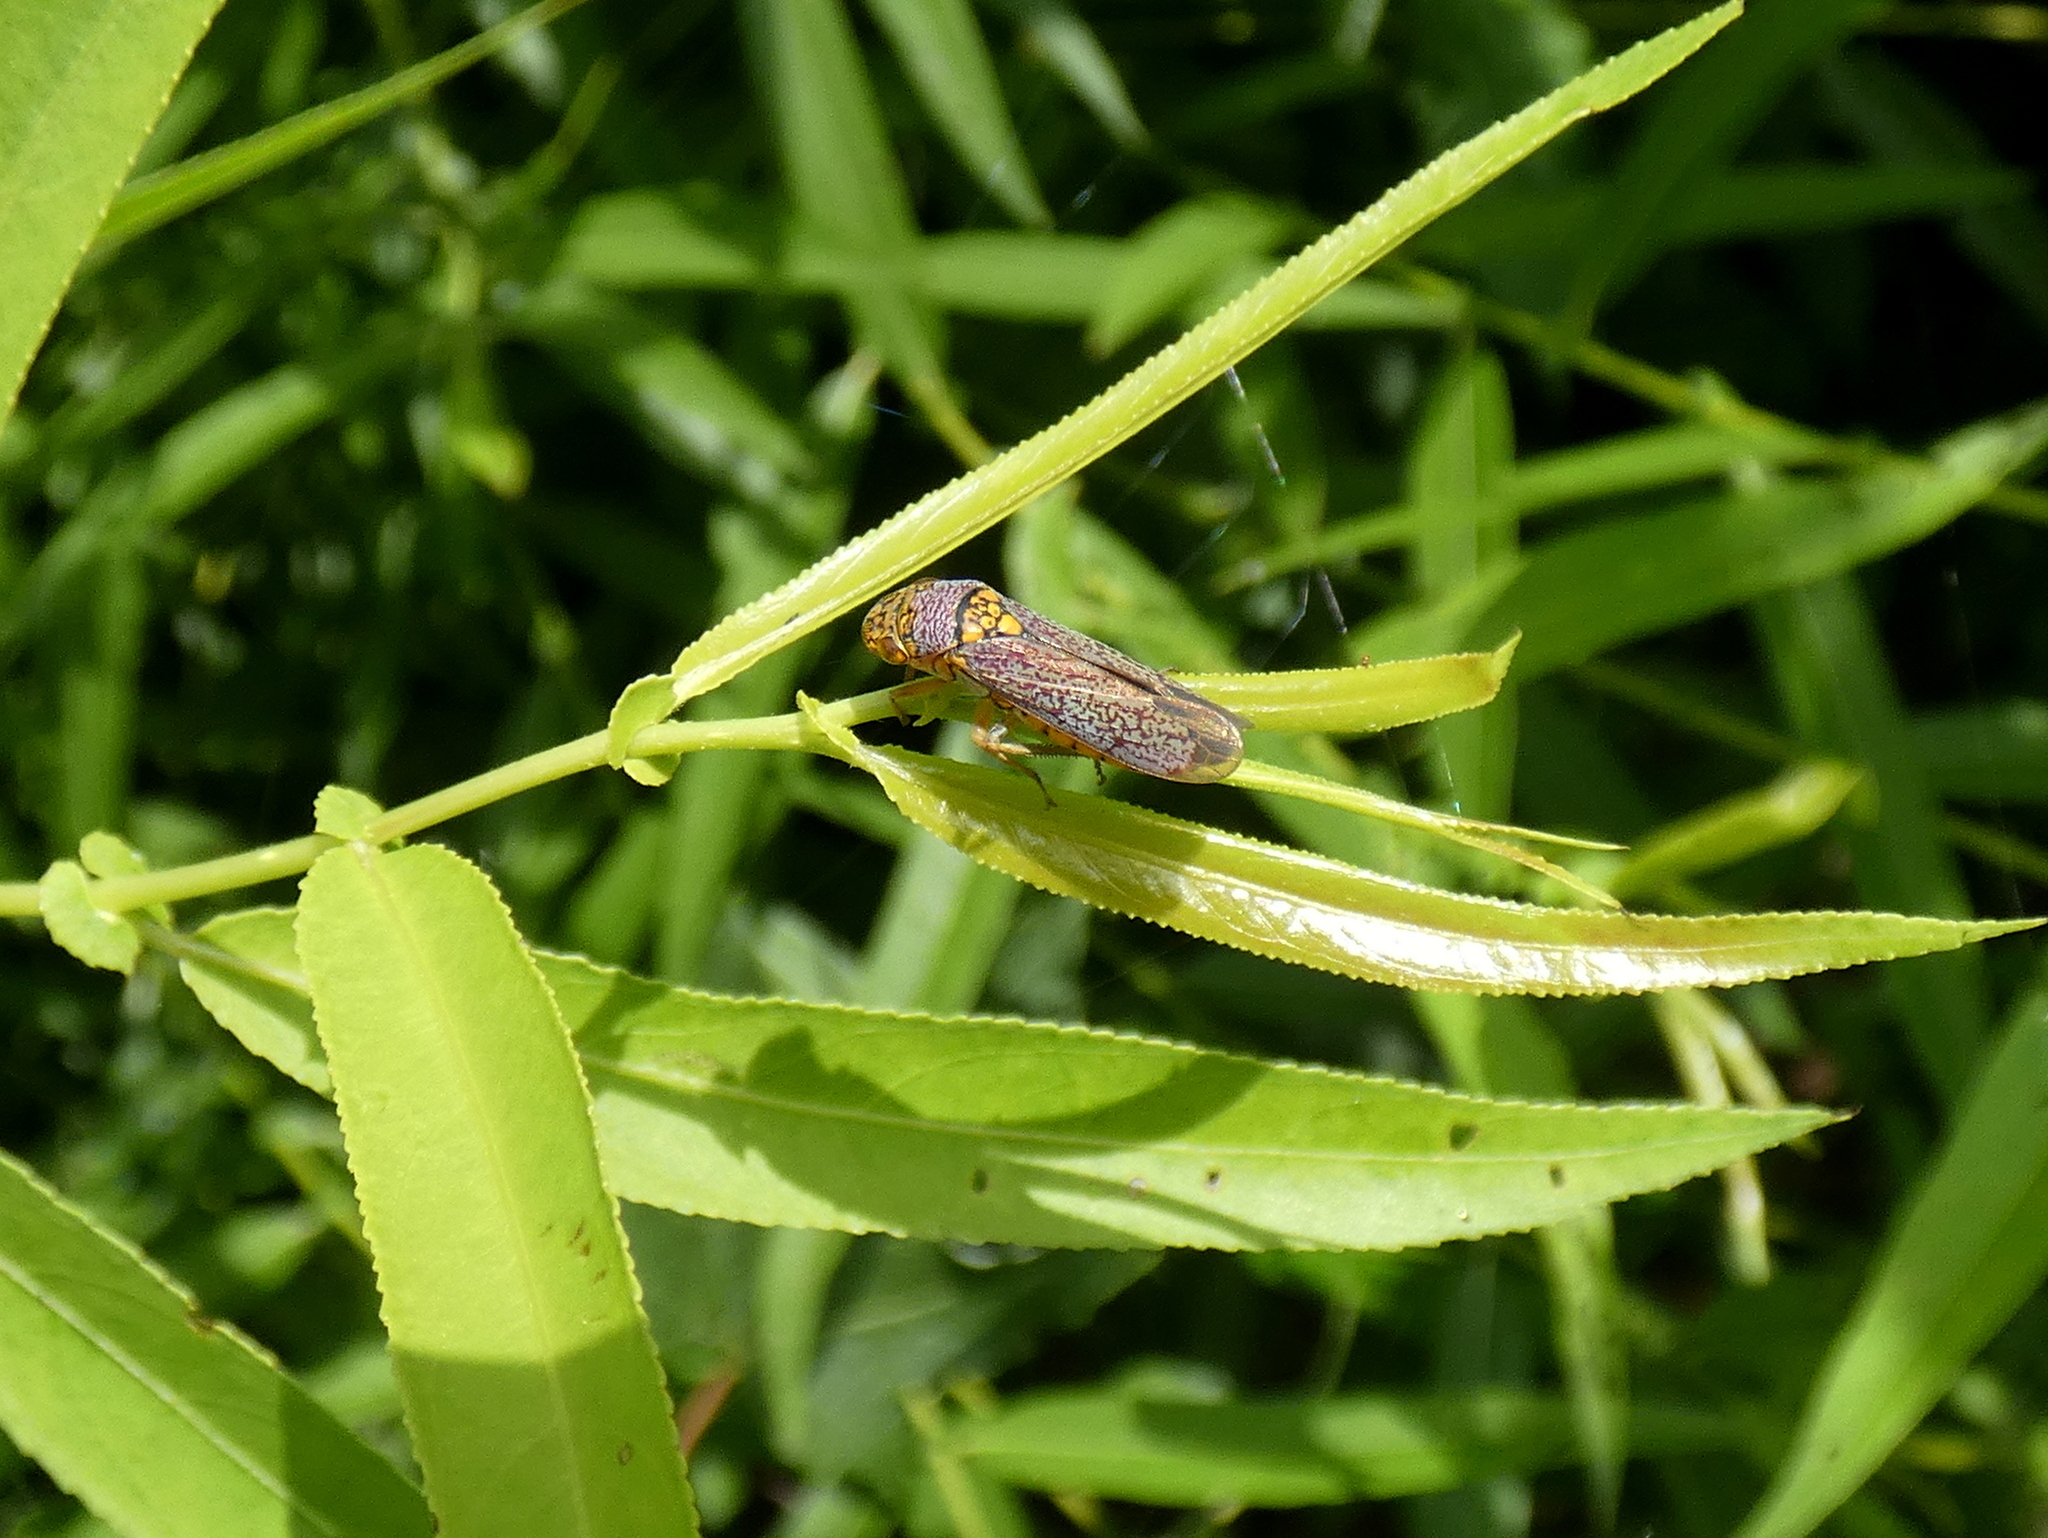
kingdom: Animalia
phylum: Arthropoda
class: Insecta
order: Hemiptera
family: Cicadellidae
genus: Oncometopia
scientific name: Oncometopia orbona
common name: Broad-headed sharpshooter
